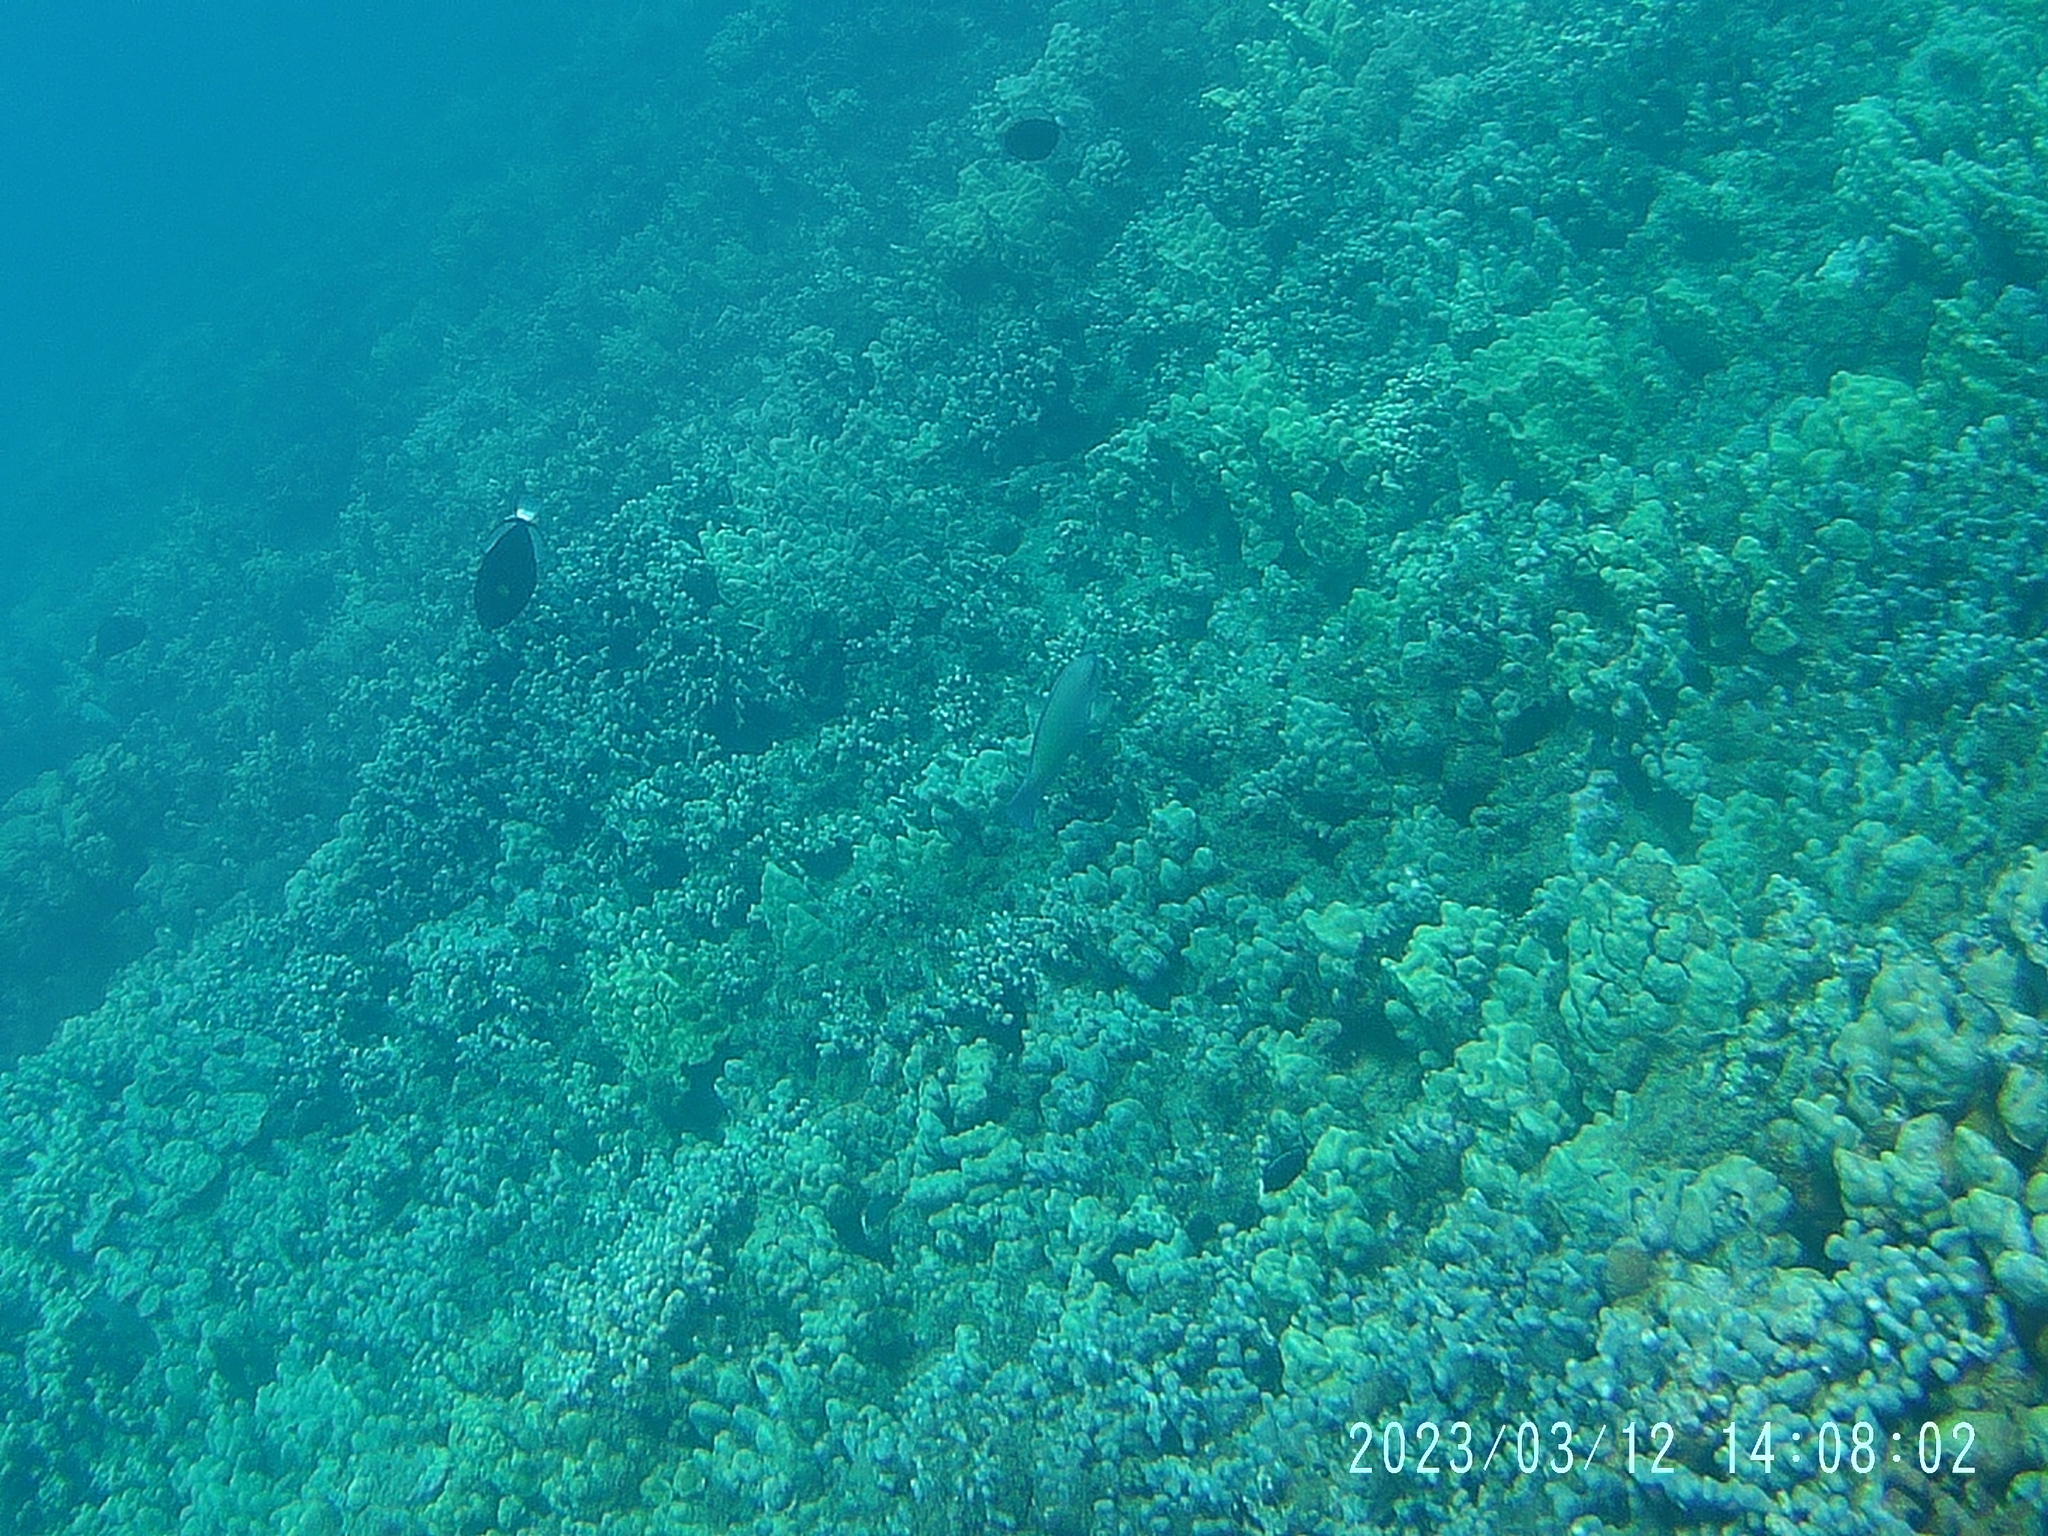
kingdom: Animalia
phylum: Chordata
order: Tetraodontiformes
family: Balistidae
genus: Melichthys
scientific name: Melichthys vidua
